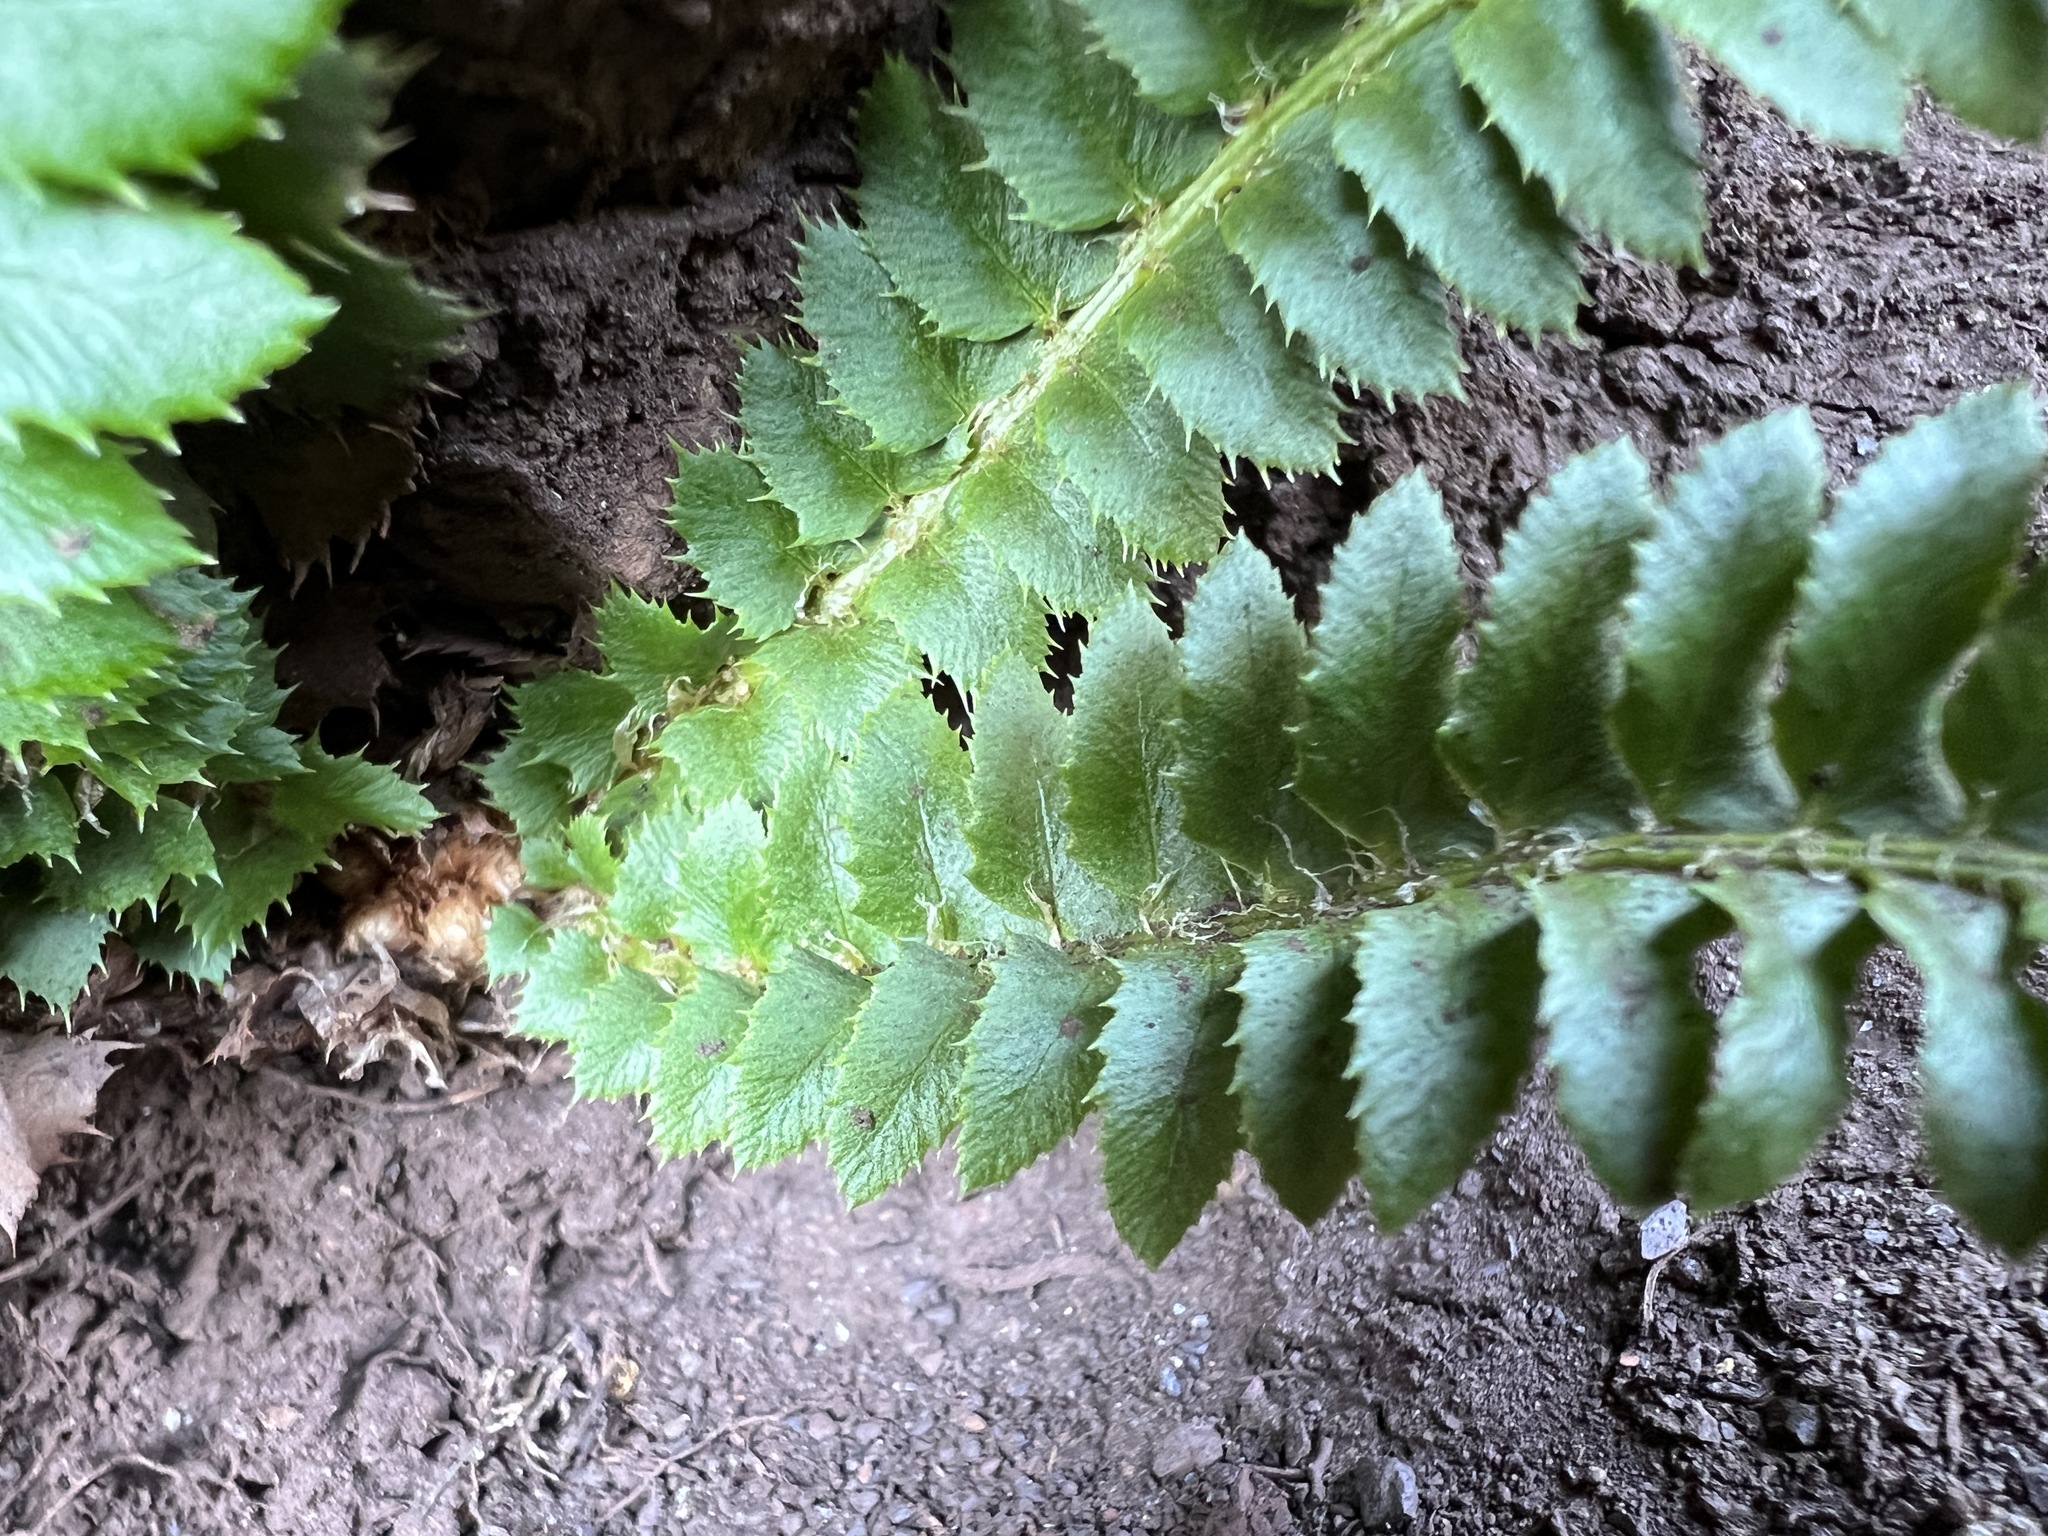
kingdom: Plantae
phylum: Tracheophyta
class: Polypodiopsida
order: Polypodiales
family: Dryopteridaceae
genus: Polystichum
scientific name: Polystichum lonchitis
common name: Holly fern
